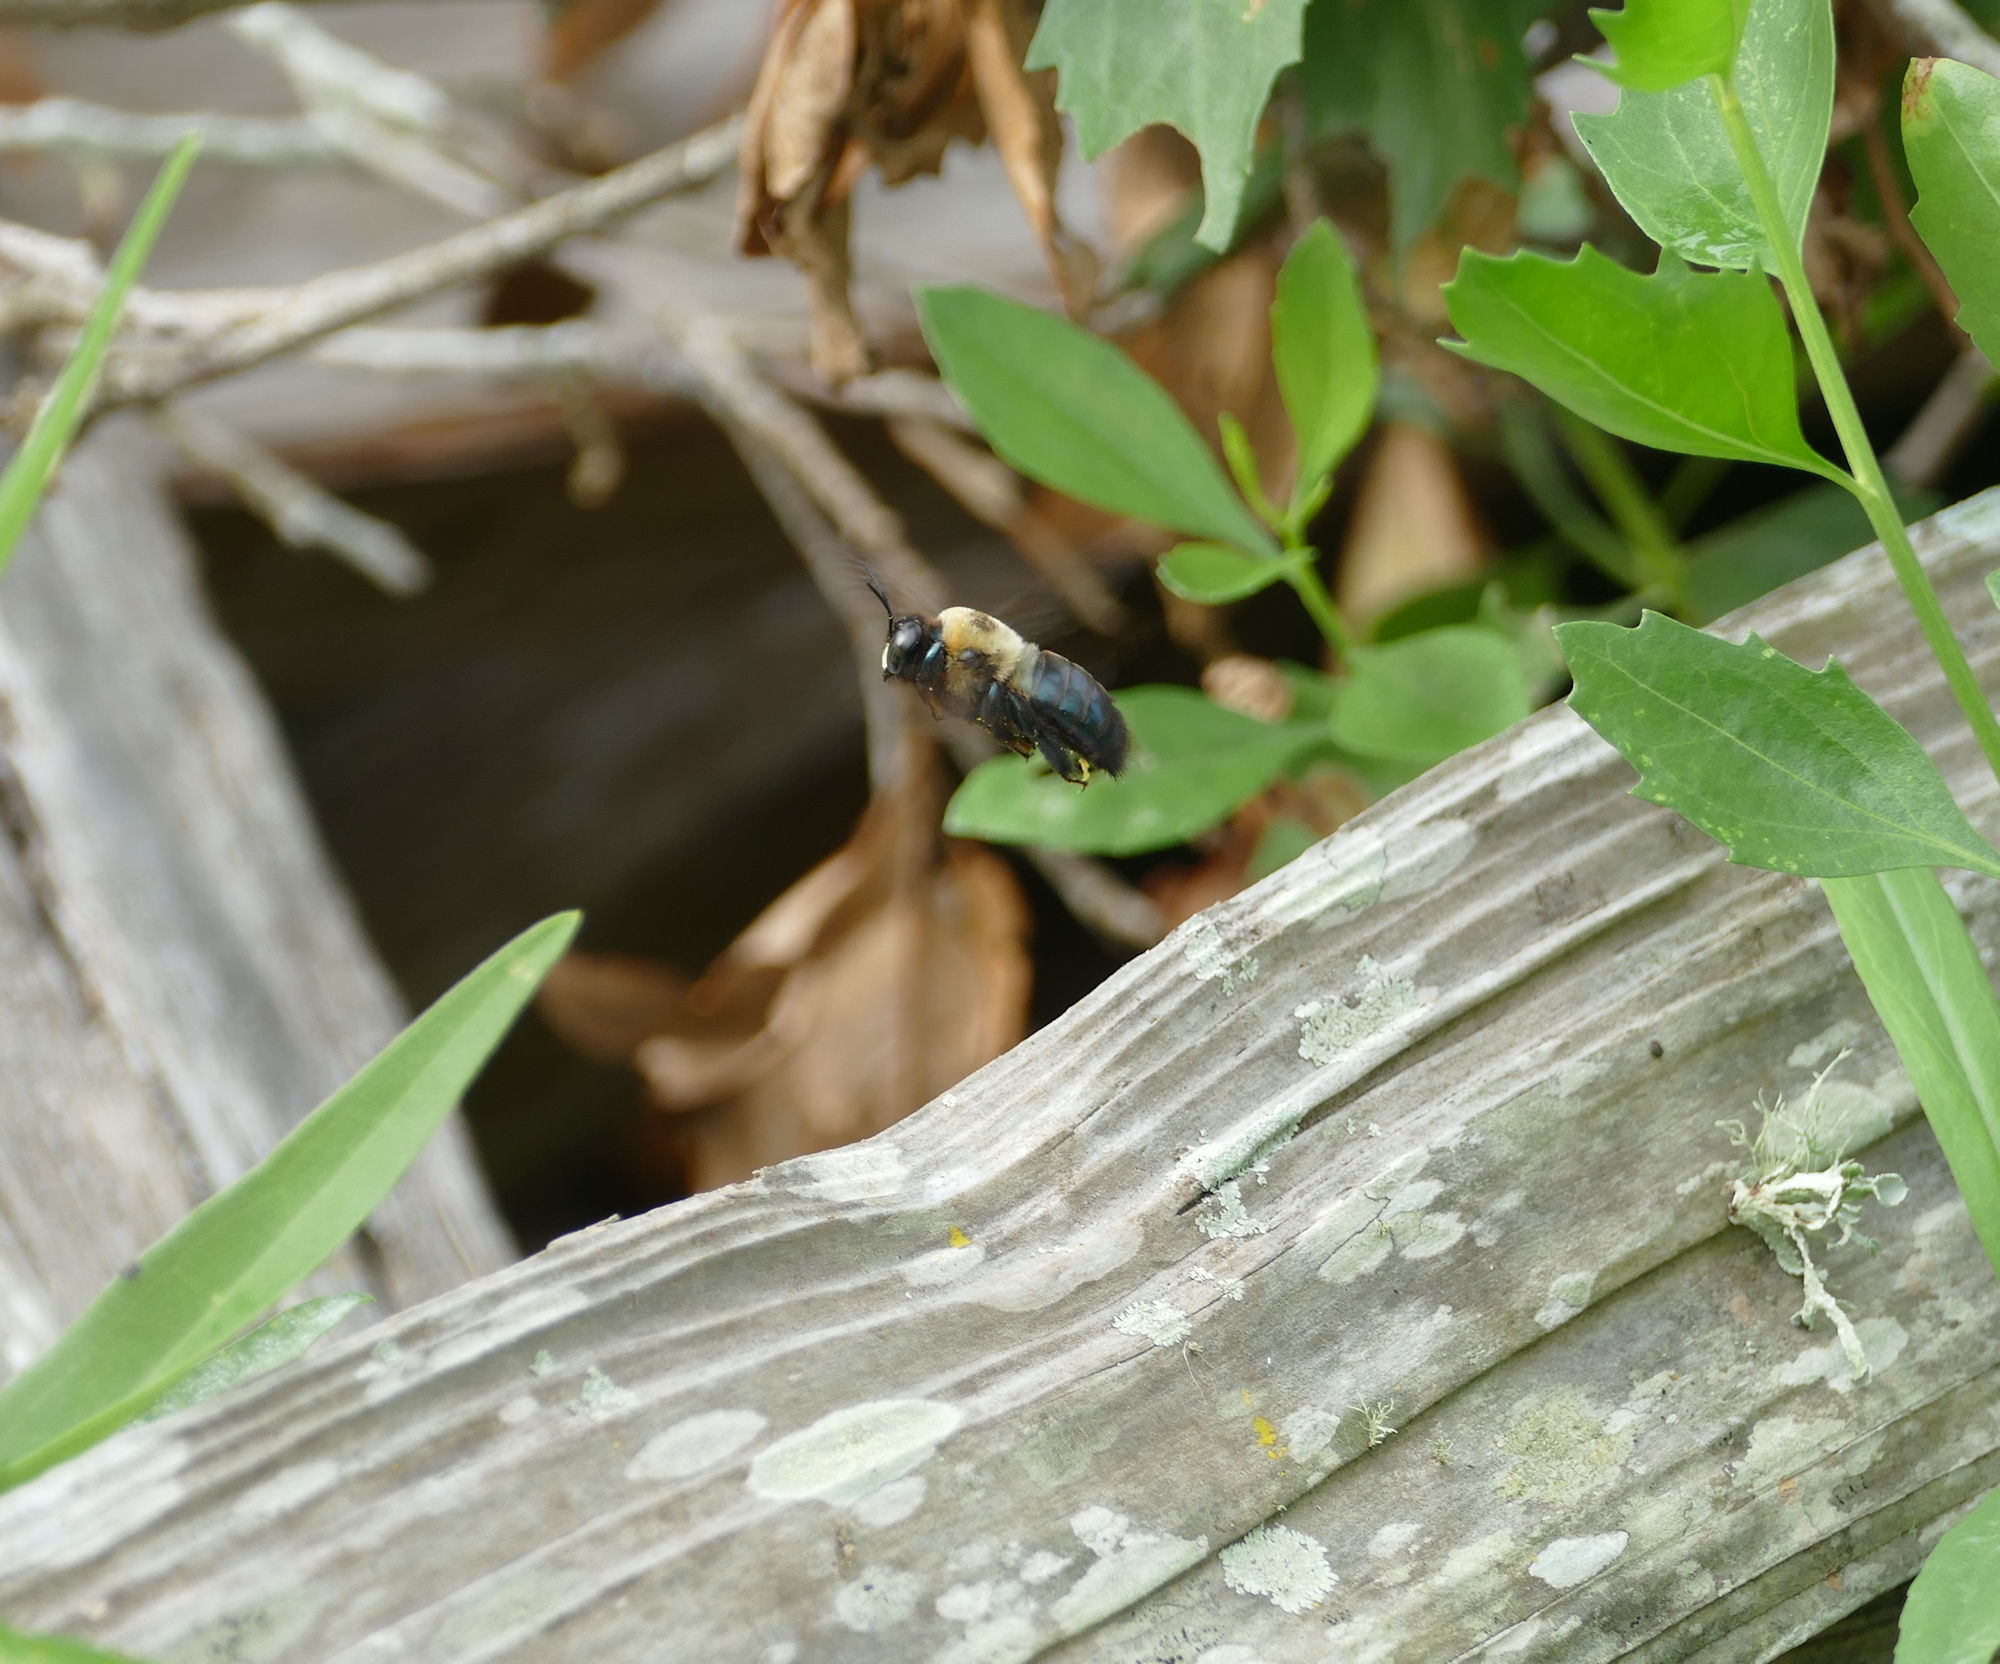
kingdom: Animalia
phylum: Arthropoda
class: Insecta
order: Hymenoptera
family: Apidae
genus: Xylocopa
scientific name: Xylocopa virginica
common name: Carpenter bee
